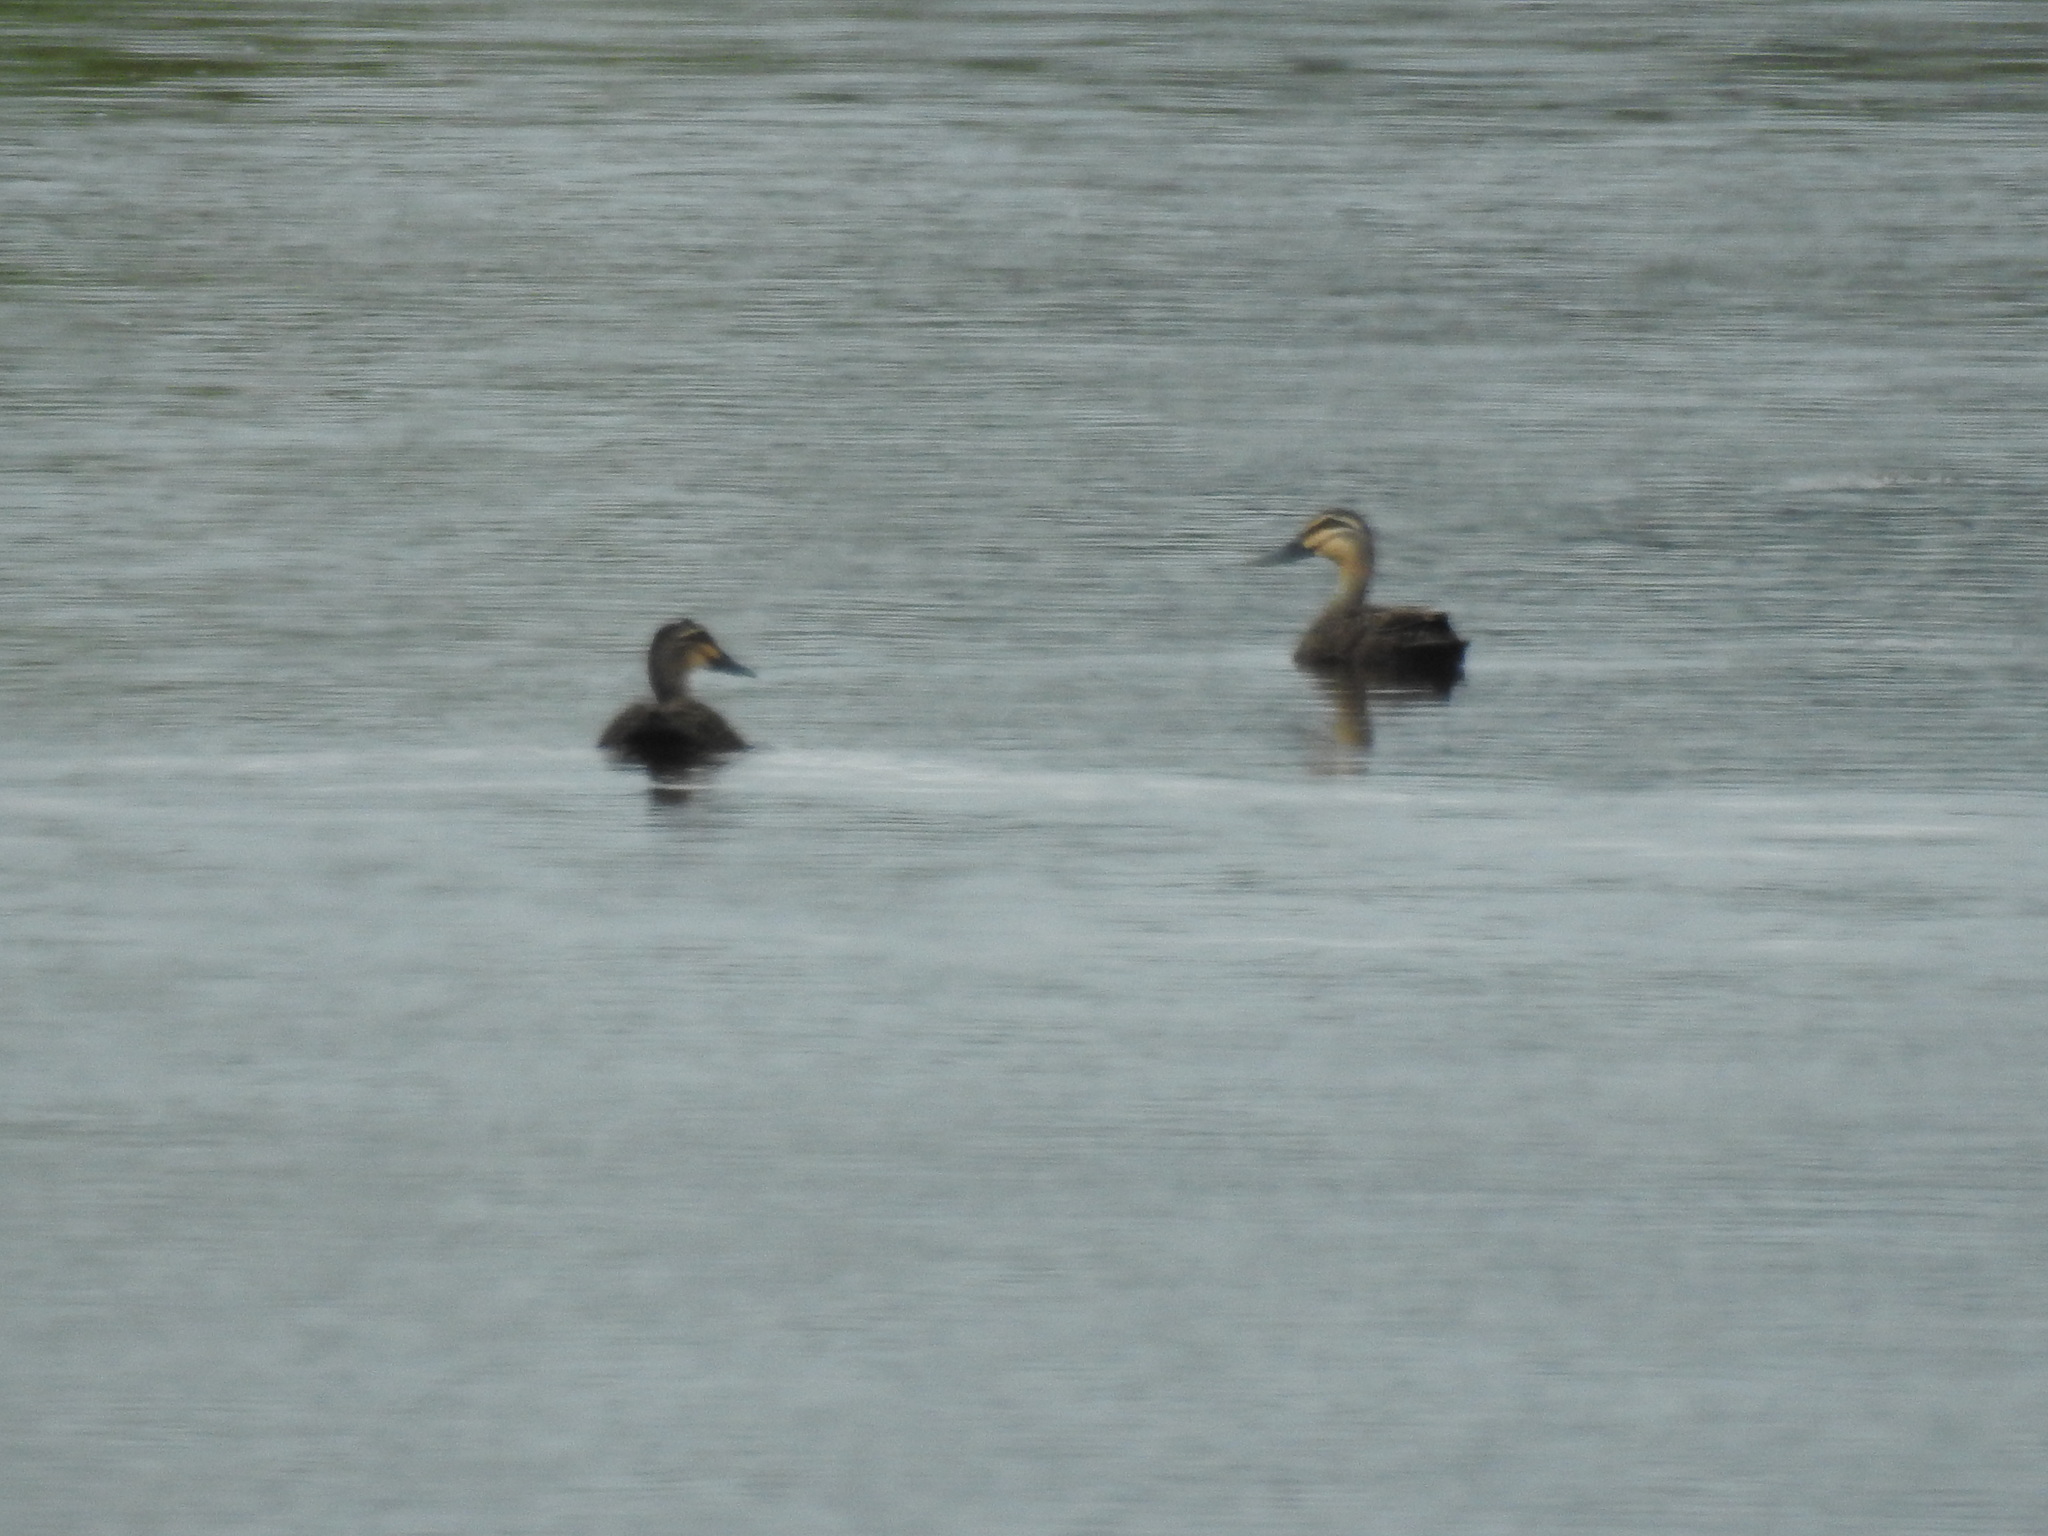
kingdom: Animalia
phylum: Chordata
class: Aves
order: Anseriformes
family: Anatidae
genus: Anas
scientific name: Anas superciliosa
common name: Pacific black duck
